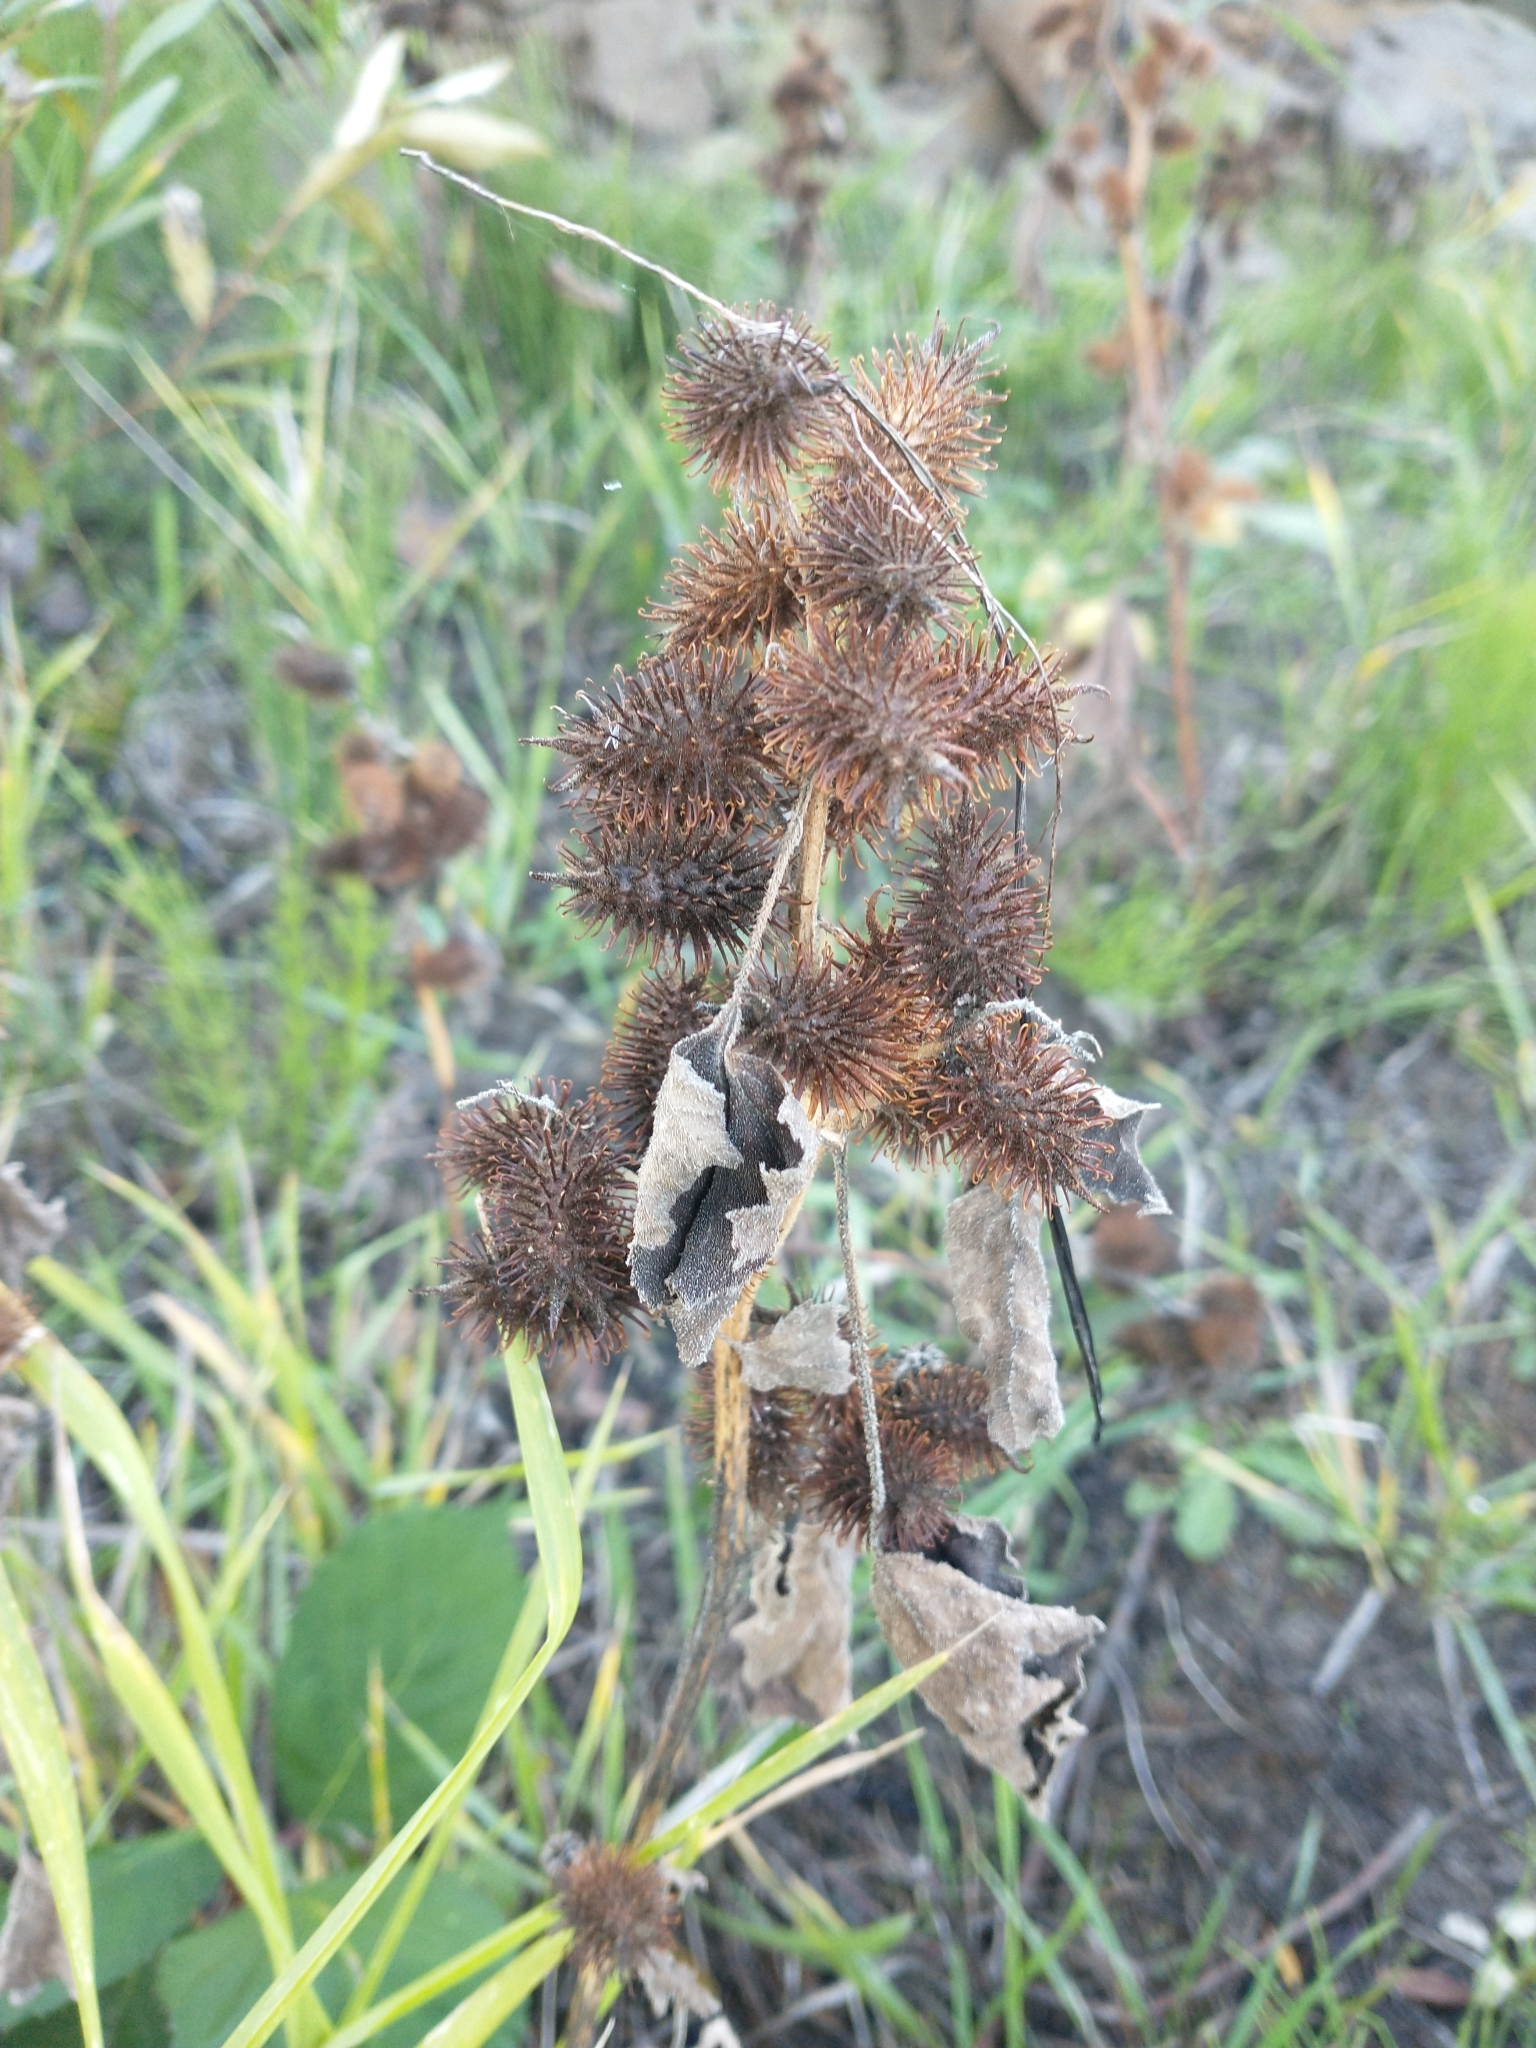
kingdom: Plantae
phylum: Tracheophyta
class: Magnoliopsida
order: Asterales
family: Asteraceae
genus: Xanthium
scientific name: Xanthium strumarium
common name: Rough cocklebur
